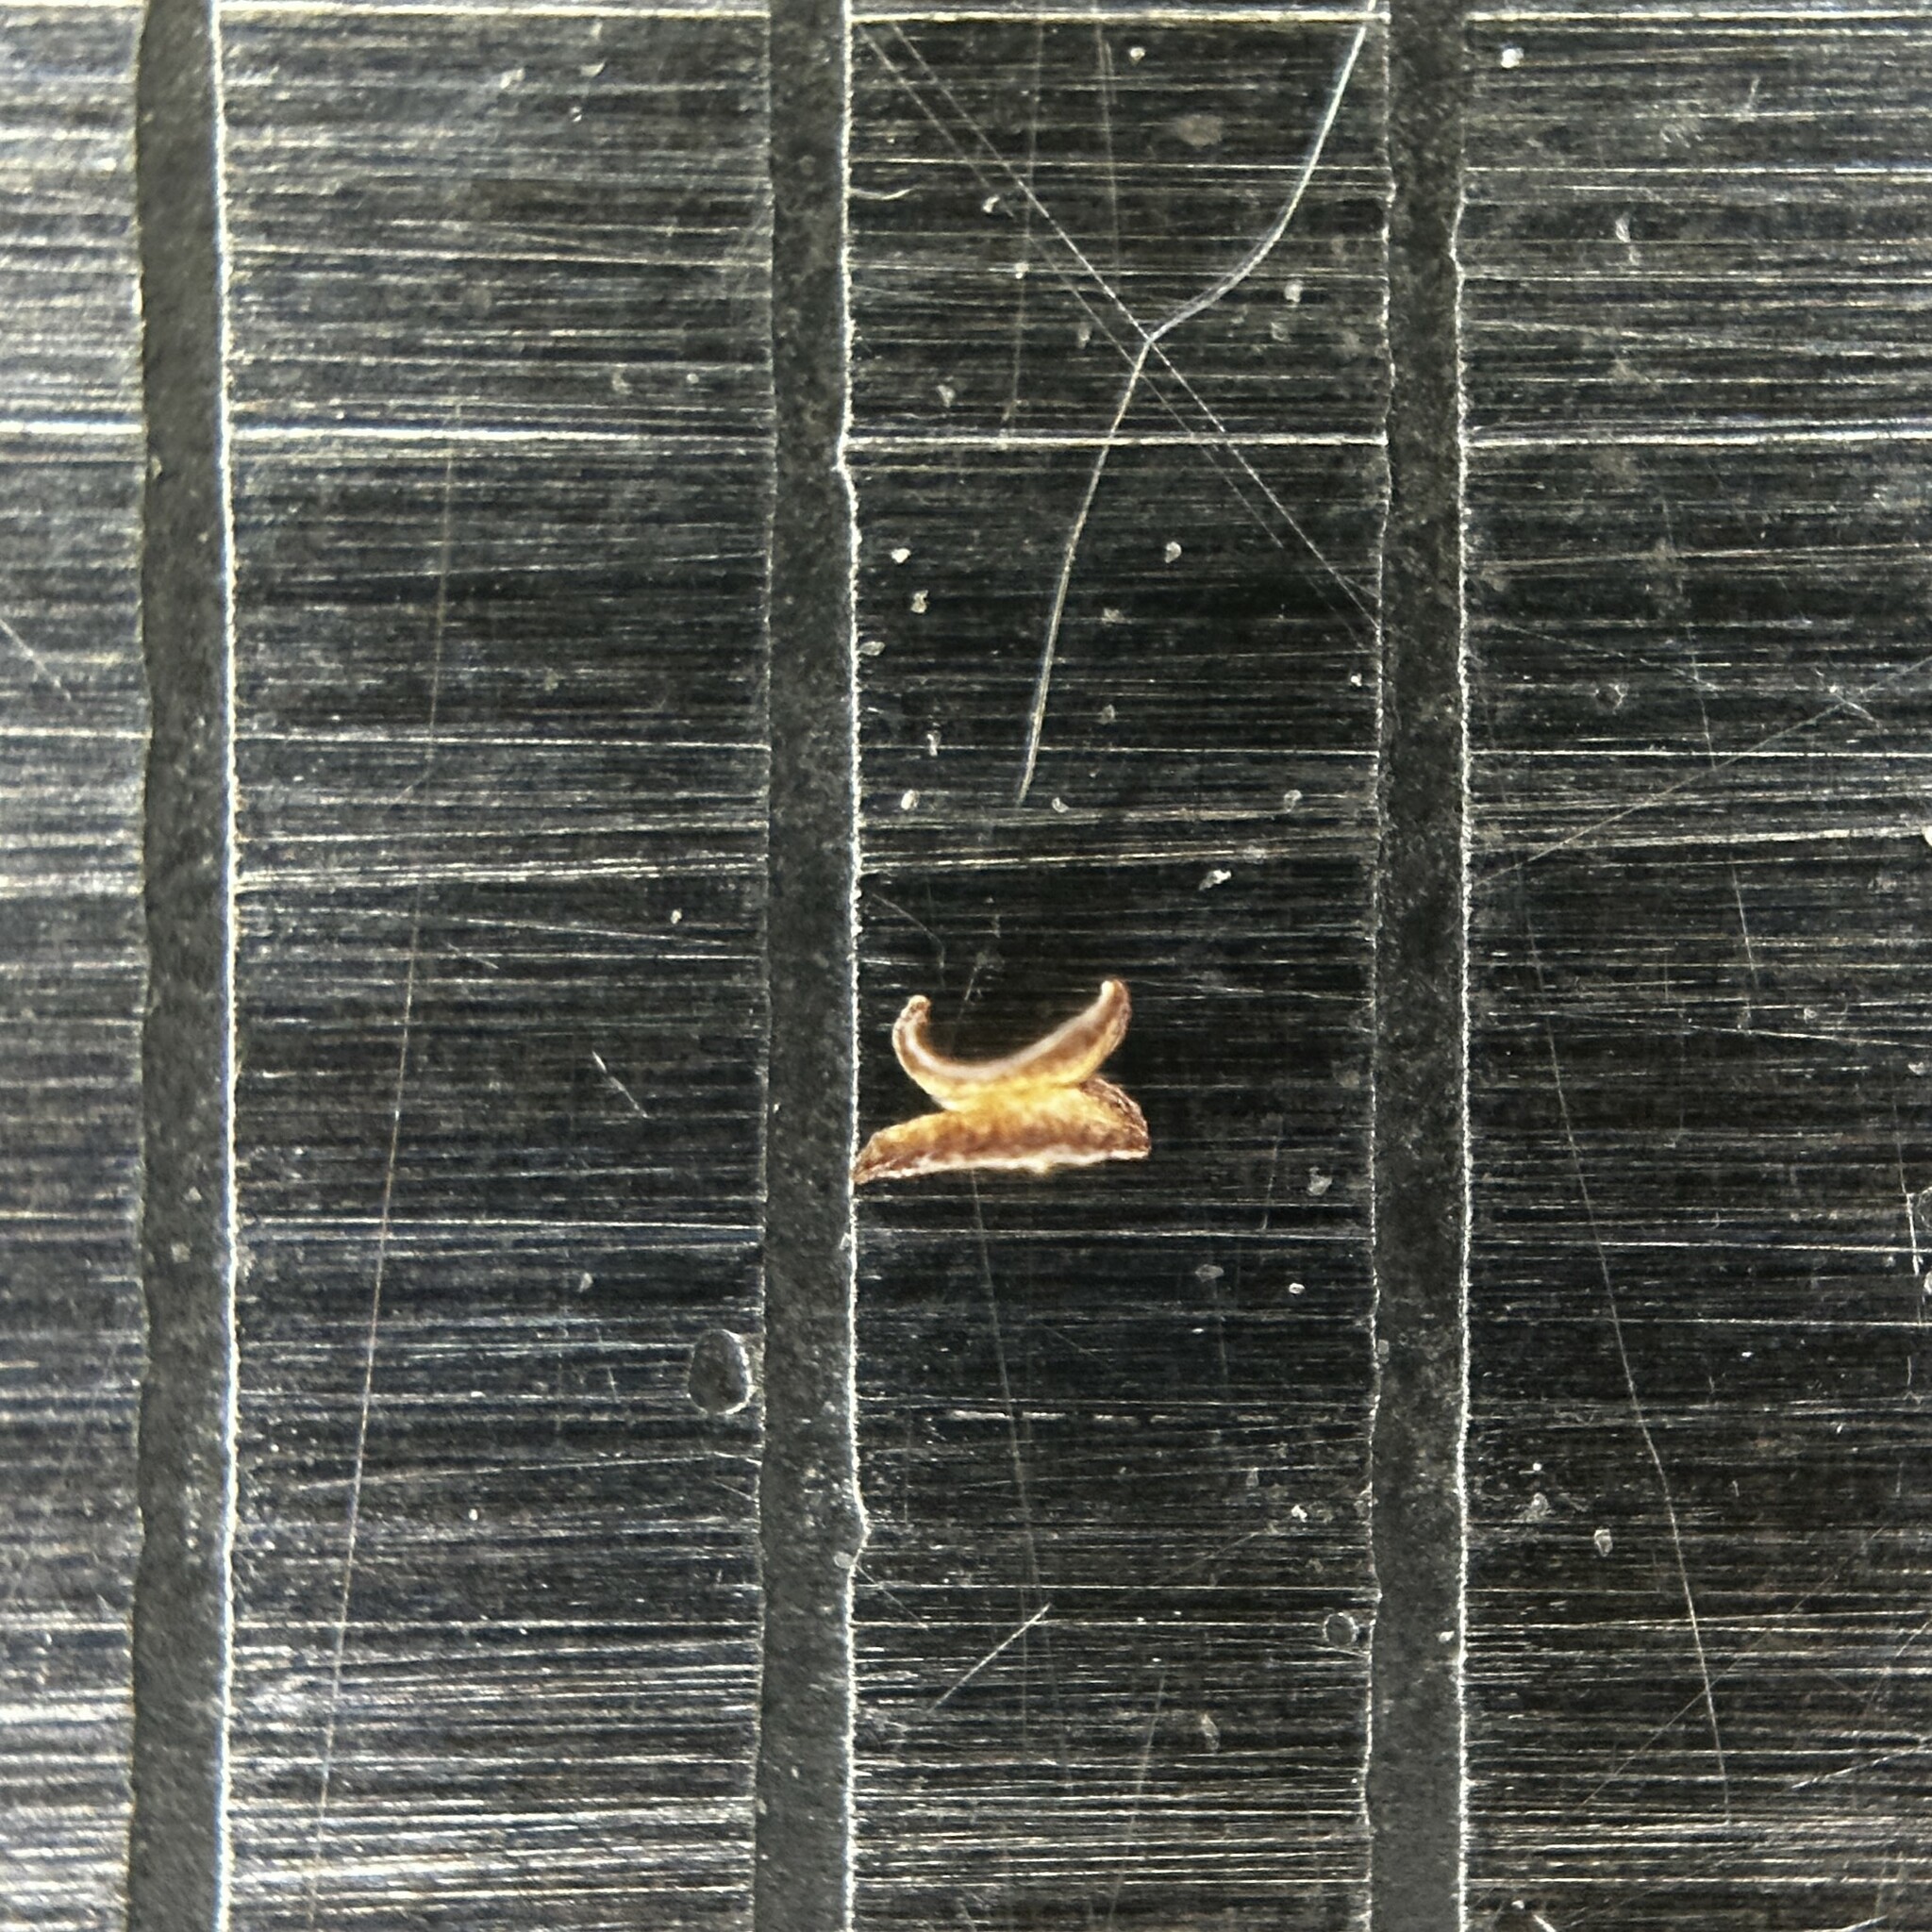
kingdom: Plantae
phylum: Tracheophyta
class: Liliopsida
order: Poales
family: Poaceae
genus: Digitaria
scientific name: Digitaria nuda
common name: Naked crabgrass
